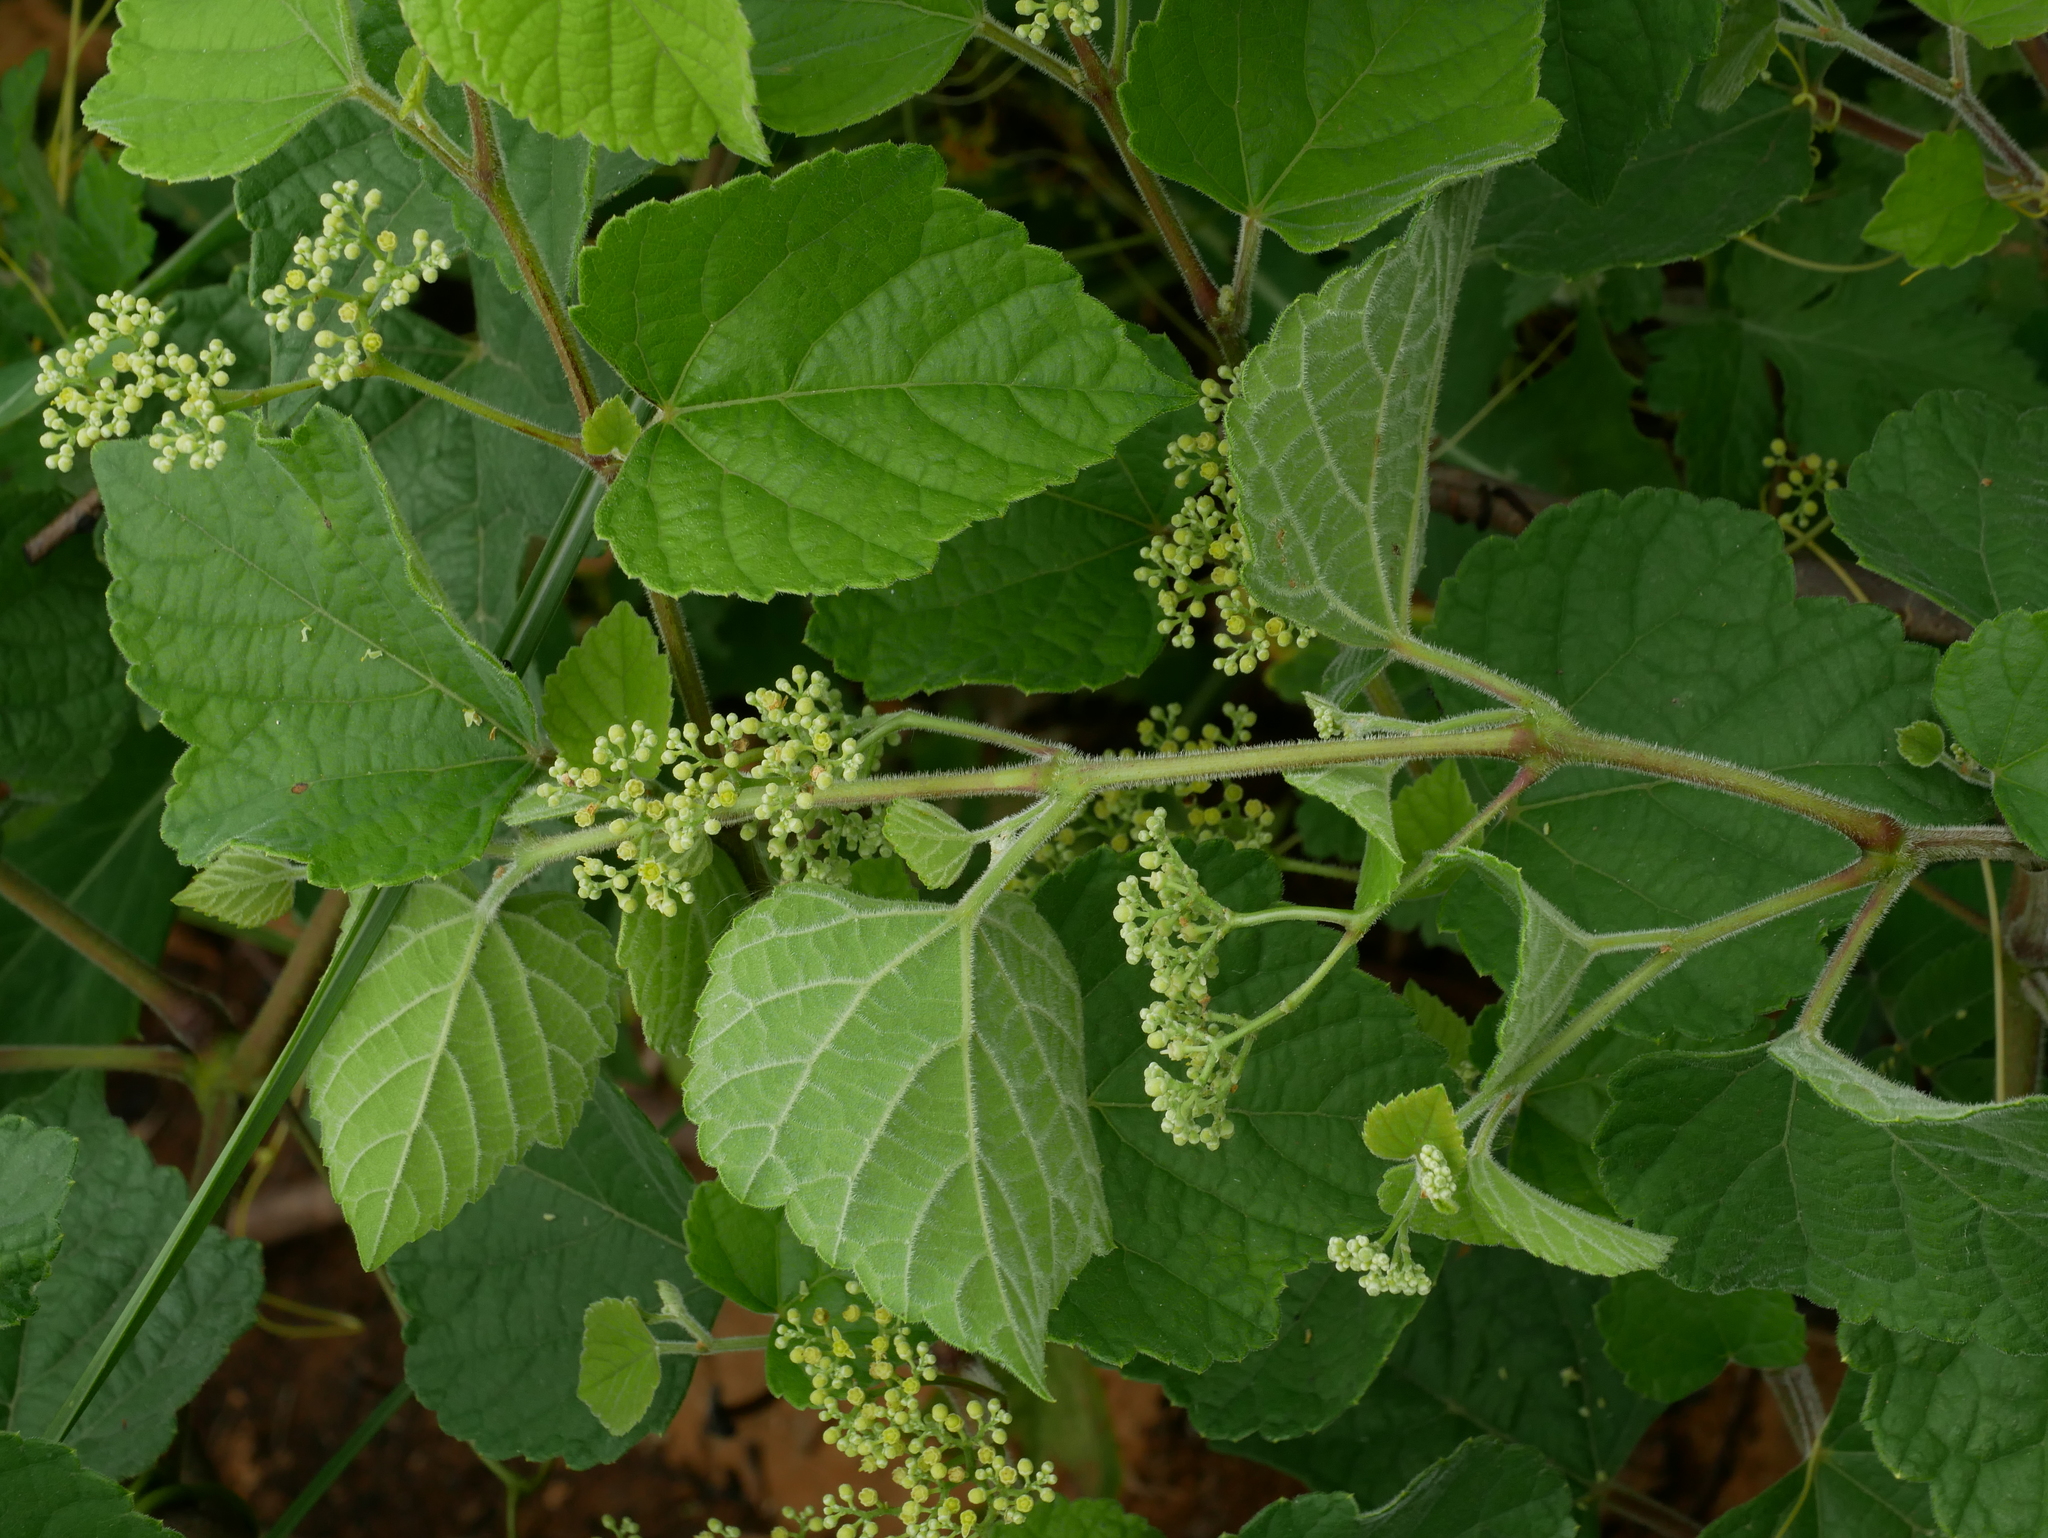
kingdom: Plantae
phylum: Tracheophyta
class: Magnoliopsida
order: Vitales
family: Vitaceae
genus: Ampelopsis
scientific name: Ampelopsis glandulosa
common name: Amur peppervine
